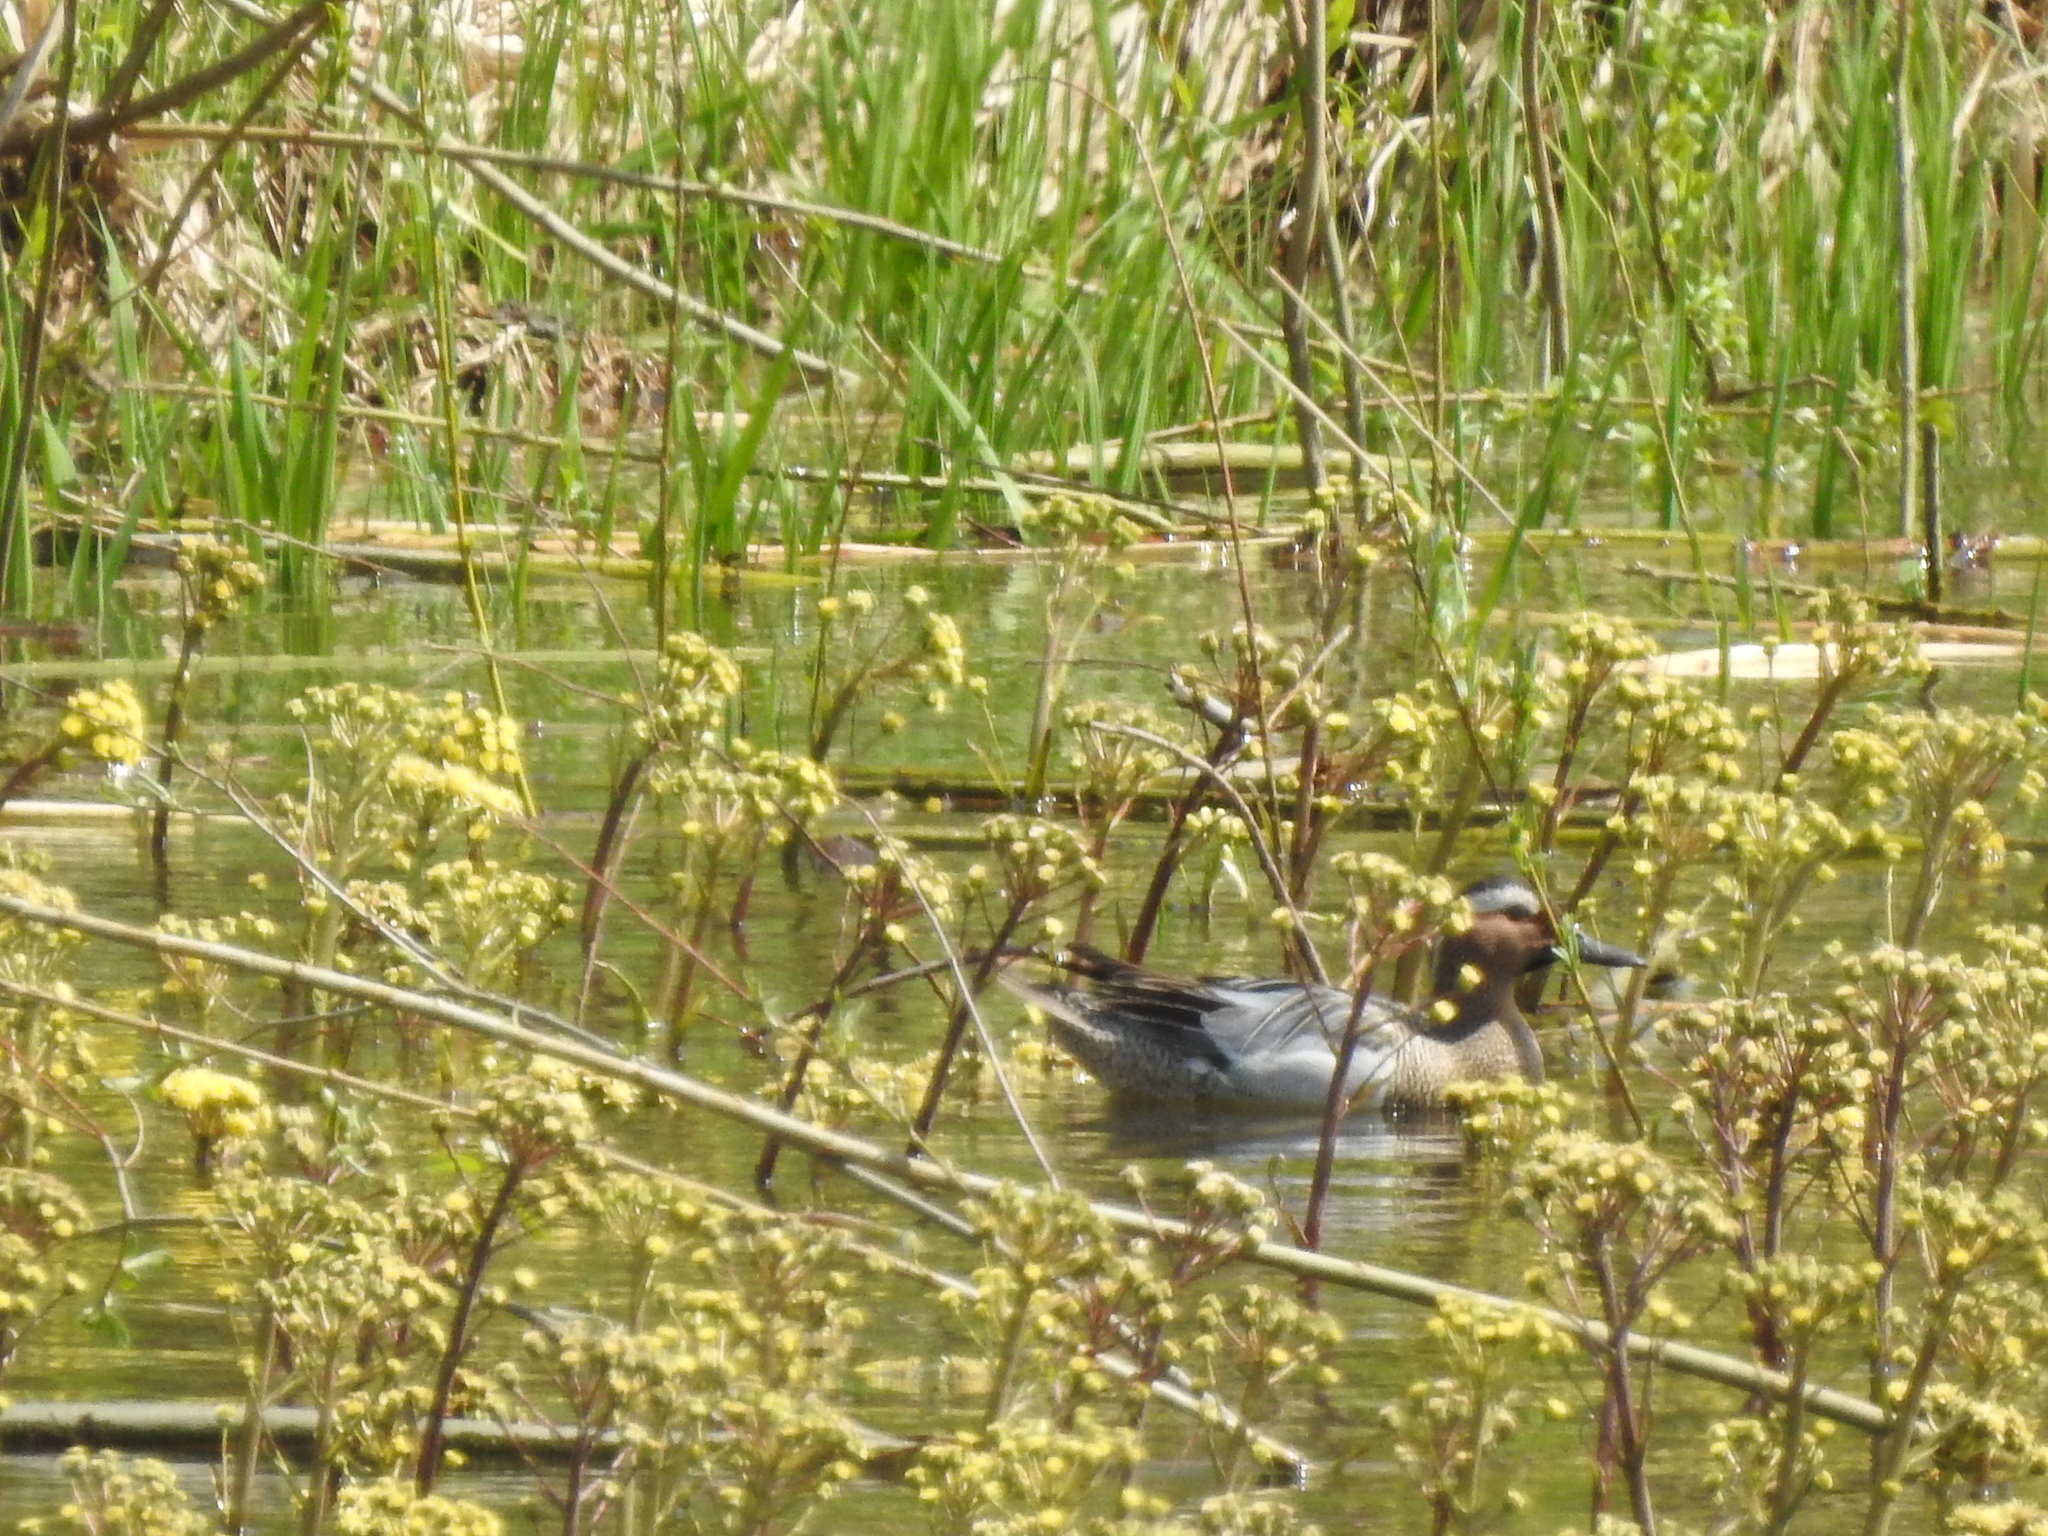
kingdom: Animalia
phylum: Chordata
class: Aves
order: Anseriformes
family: Anatidae
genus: Spatula
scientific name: Spatula querquedula
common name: Garganey
